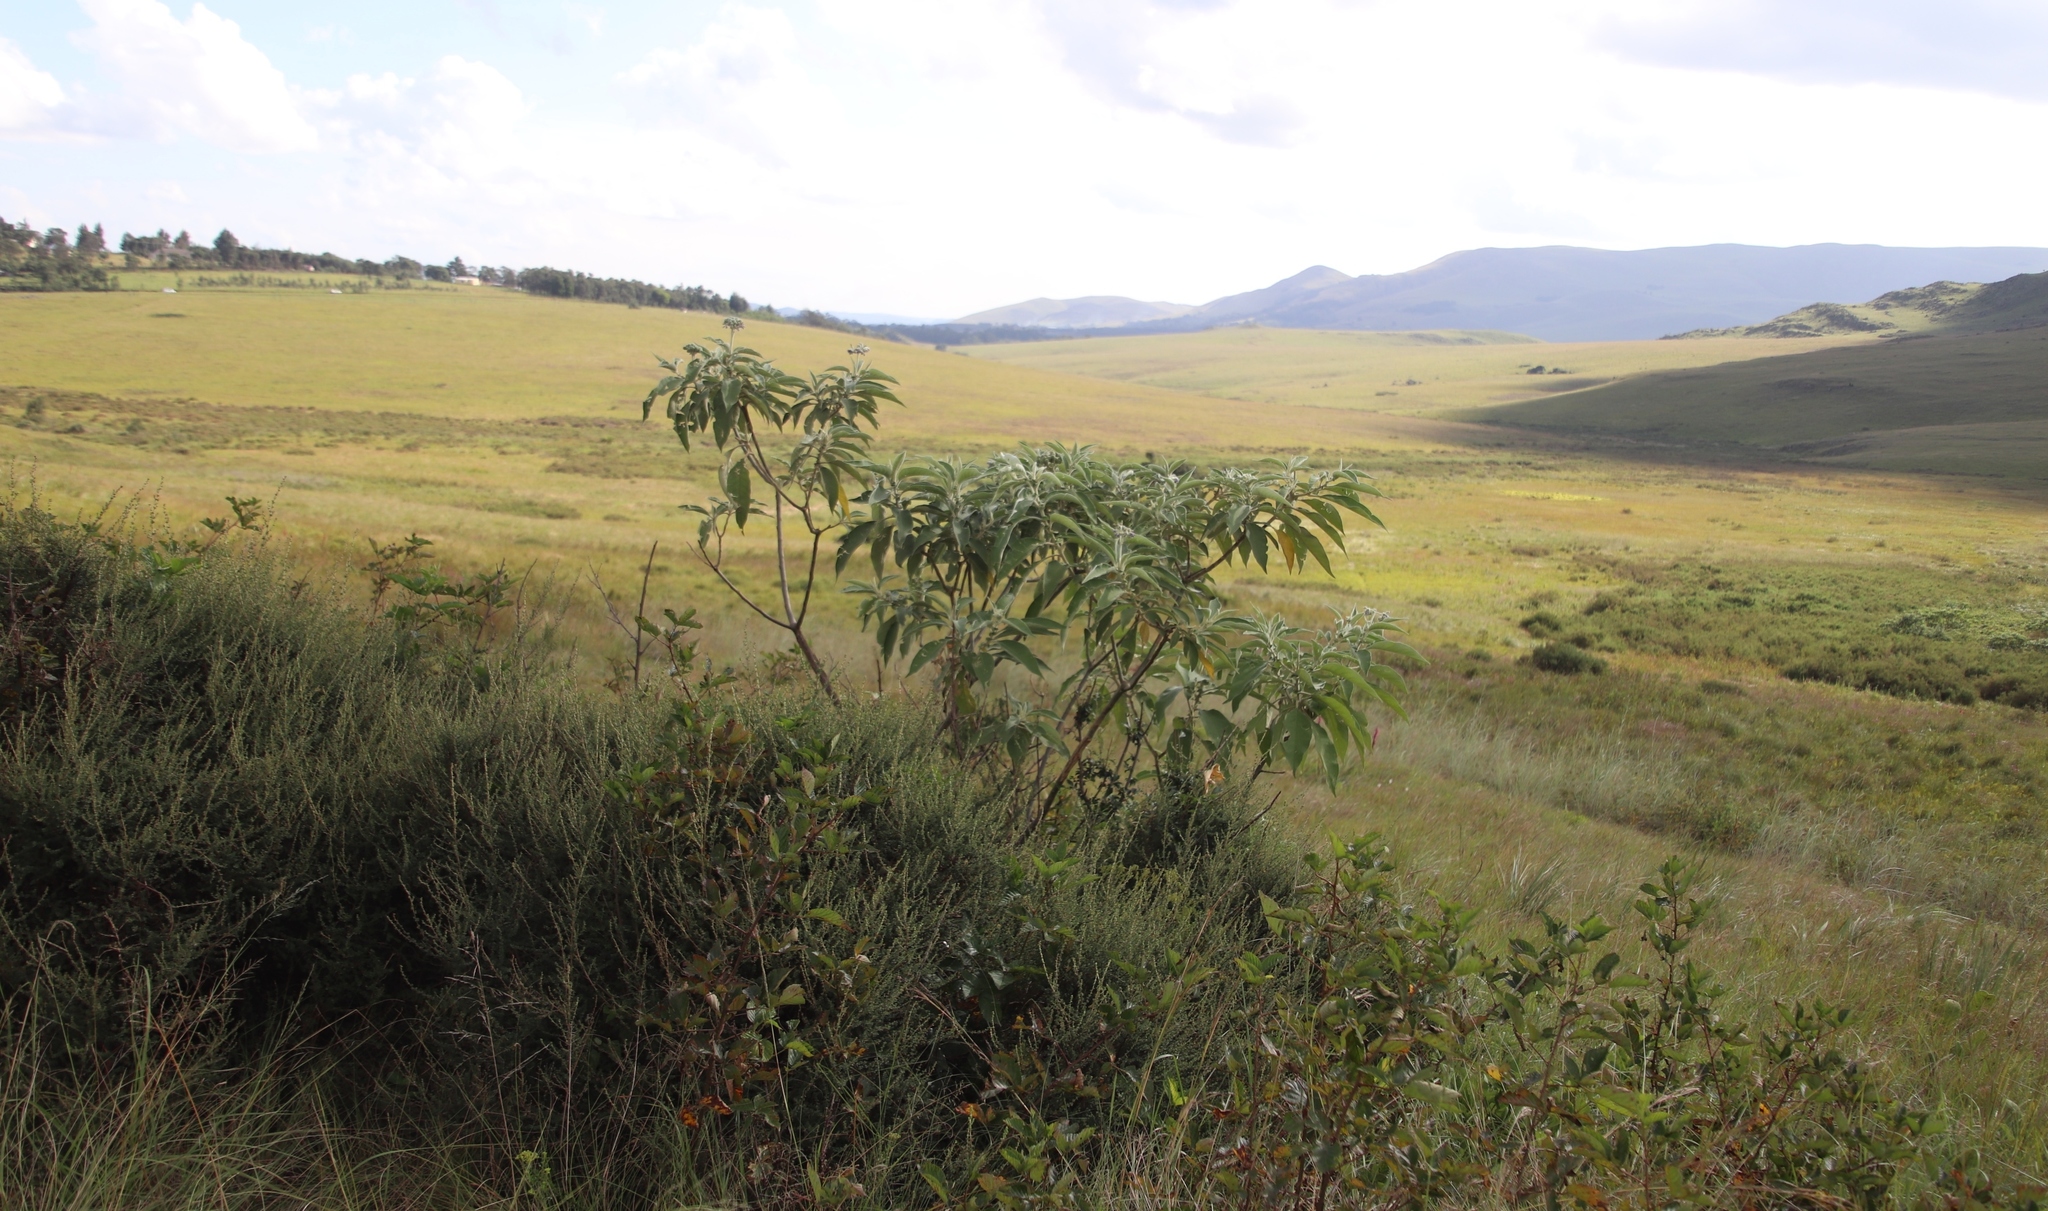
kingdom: Plantae
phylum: Tracheophyta
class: Magnoliopsida
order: Solanales
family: Solanaceae
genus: Solanum
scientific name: Solanum mauritianum
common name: Earleaf nightshade
